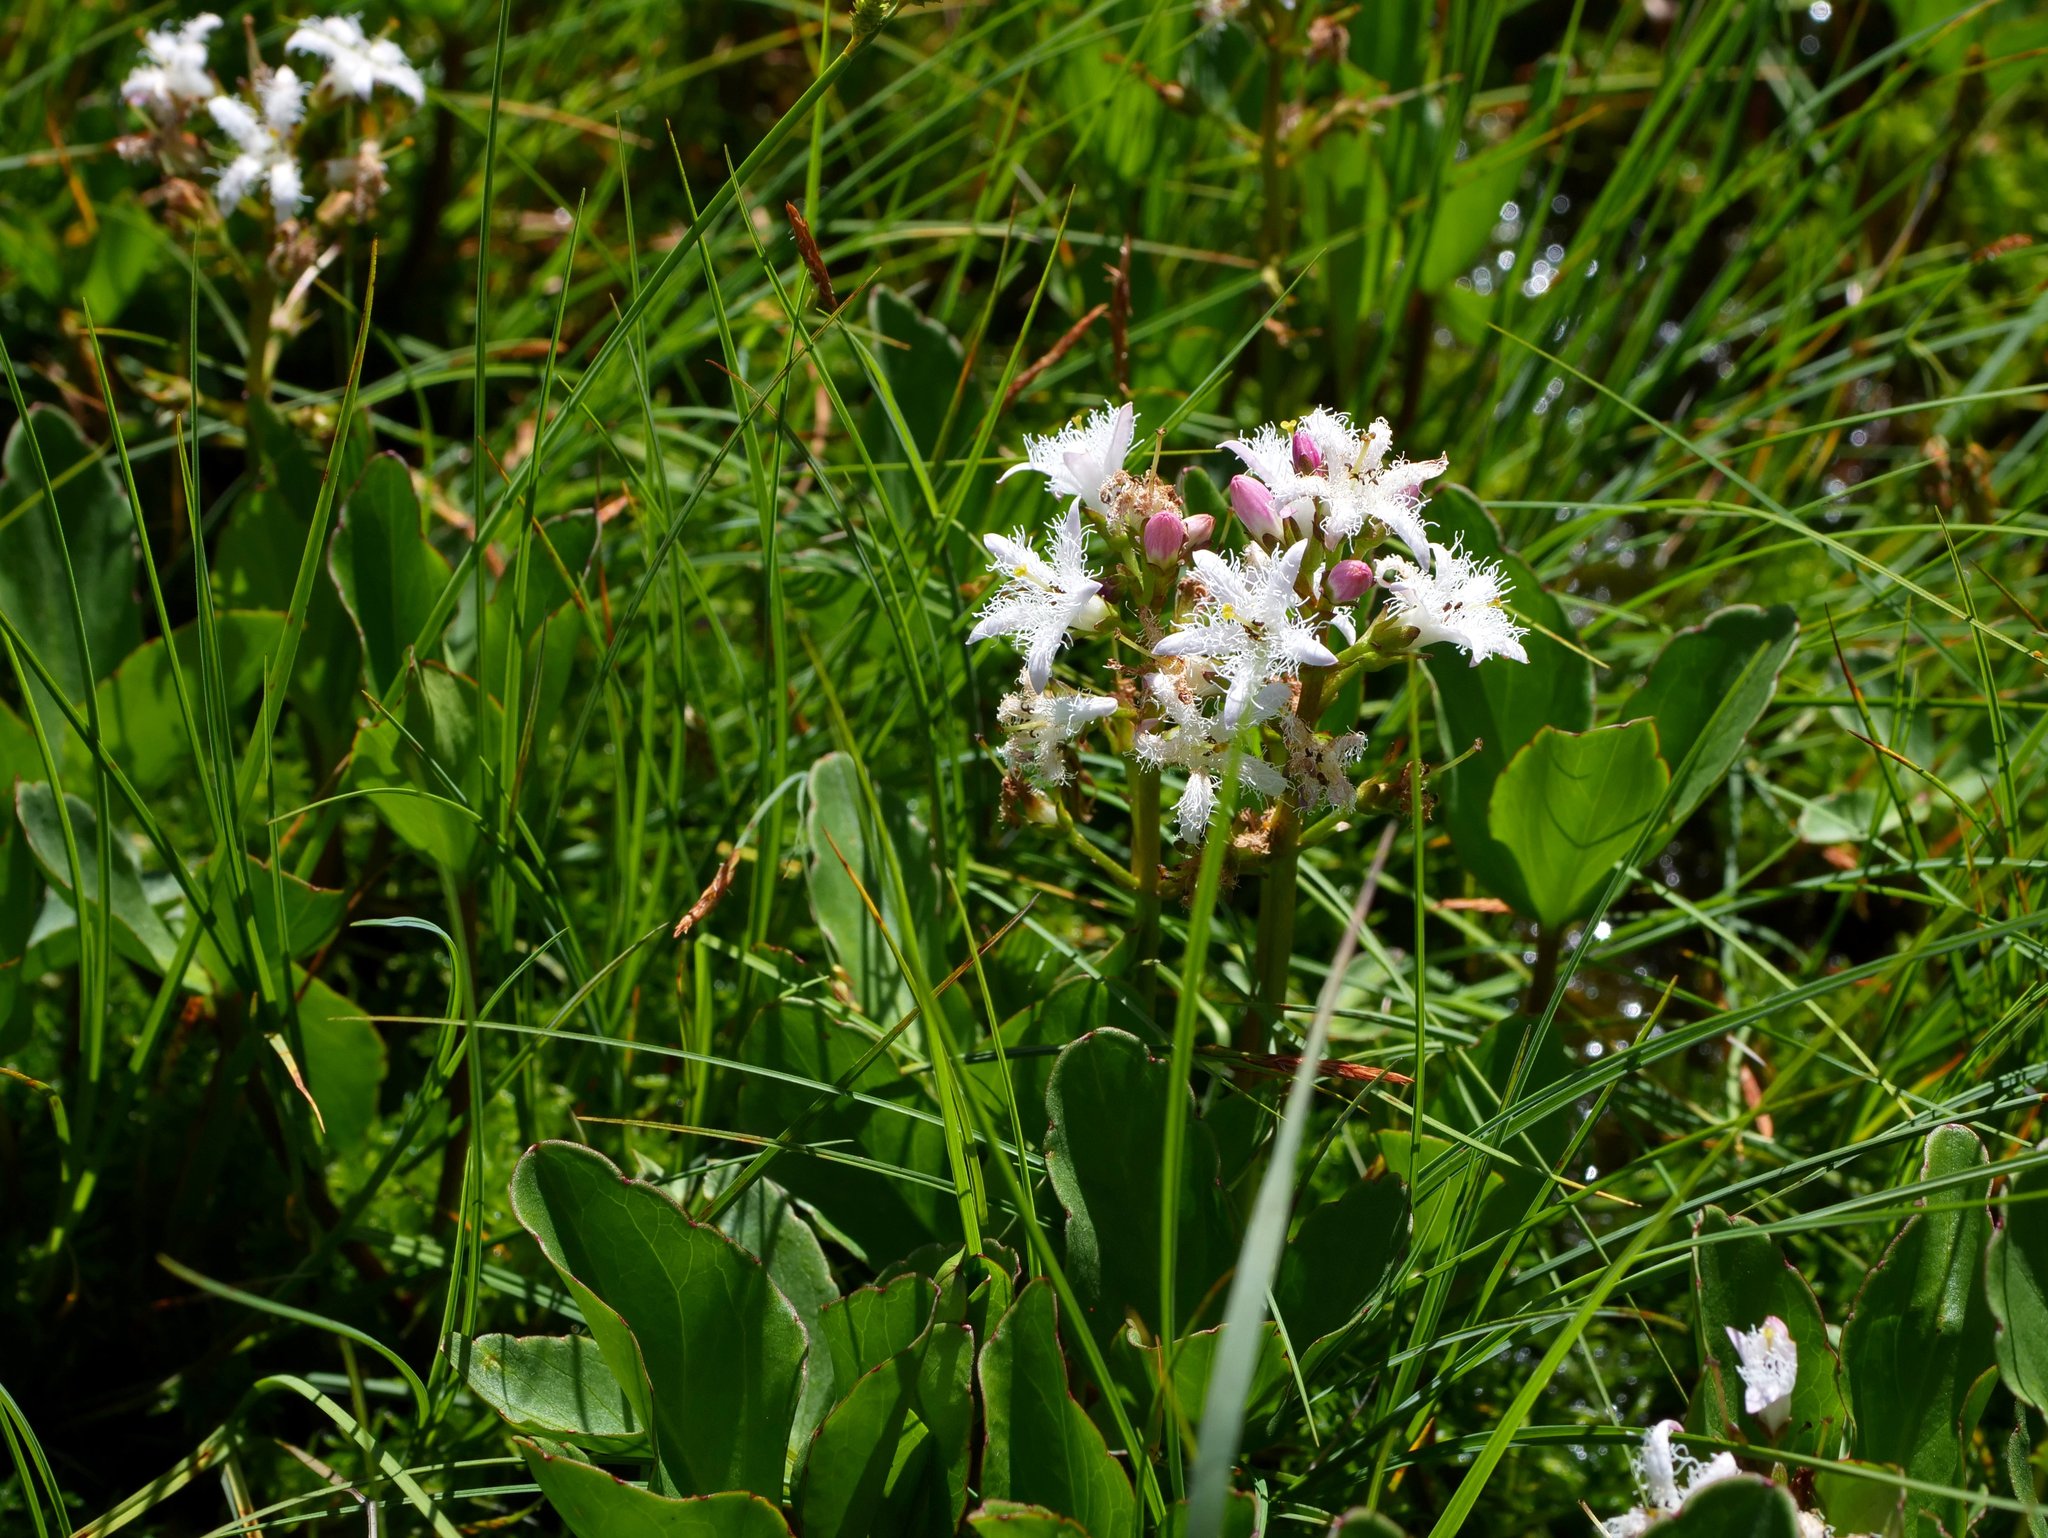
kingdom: Plantae
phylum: Tracheophyta
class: Magnoliopsida
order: Asterales
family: Menyanthaceae
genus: Menyanthes
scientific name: Menyanthes trifoliata
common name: Bogbean
